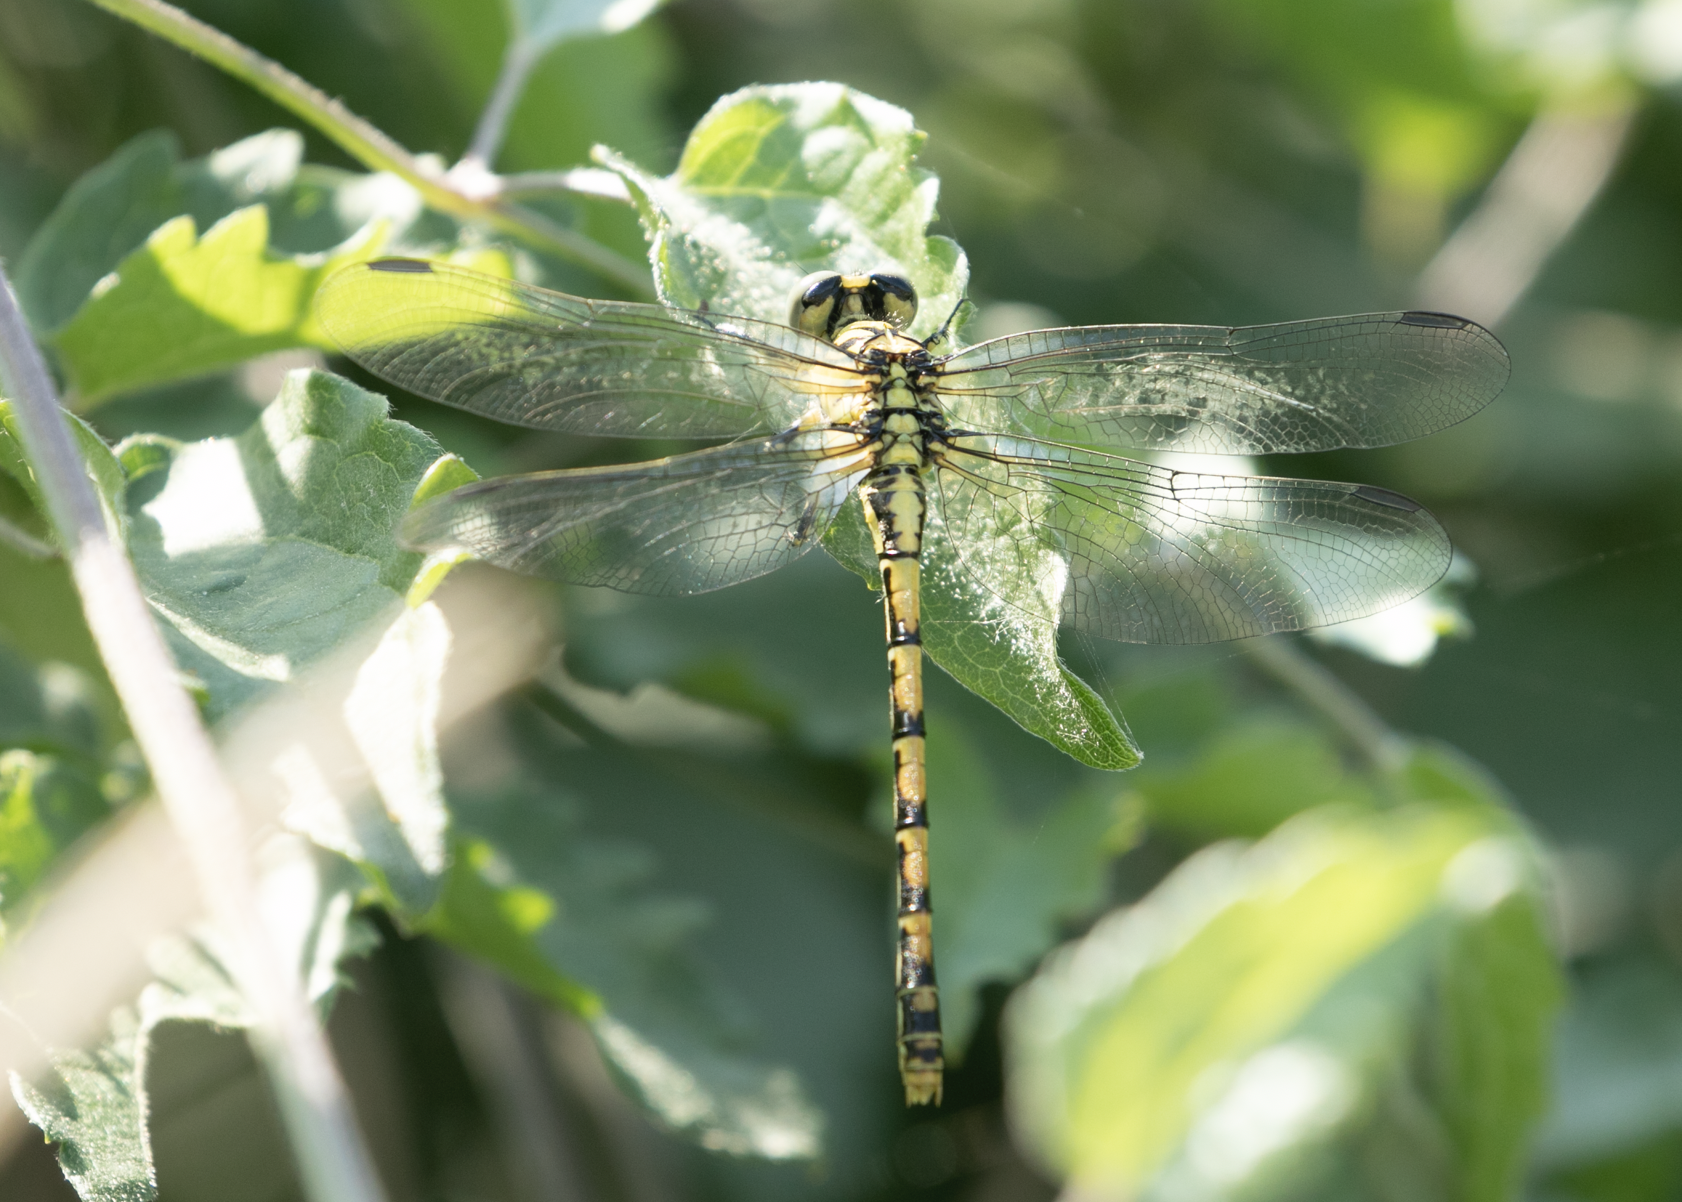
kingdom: Animalia
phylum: Arthropoda
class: Insecta
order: Odonata
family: Gomphidae
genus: Onychogomphus
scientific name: Onychogomphus forcipatus
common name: Small pincertail
